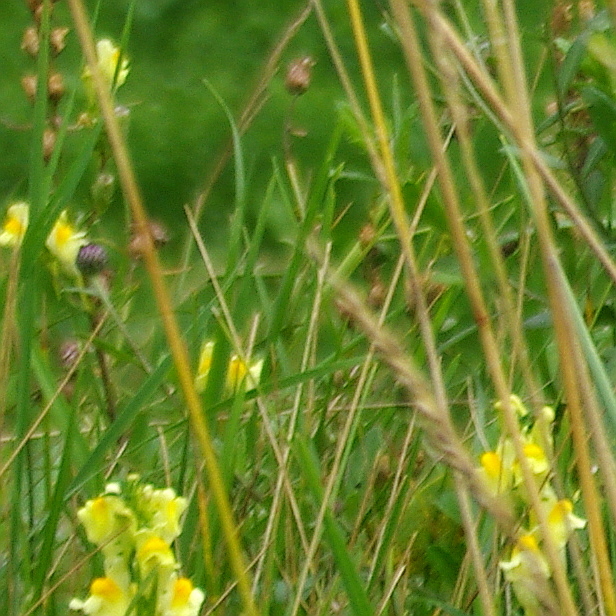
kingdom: Plantae
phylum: Tracheophyta
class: Magnoliopsida
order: Lamiales
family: Plantaginaceae
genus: Linaria
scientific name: Linaria vulgaris
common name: Butter and eggs
